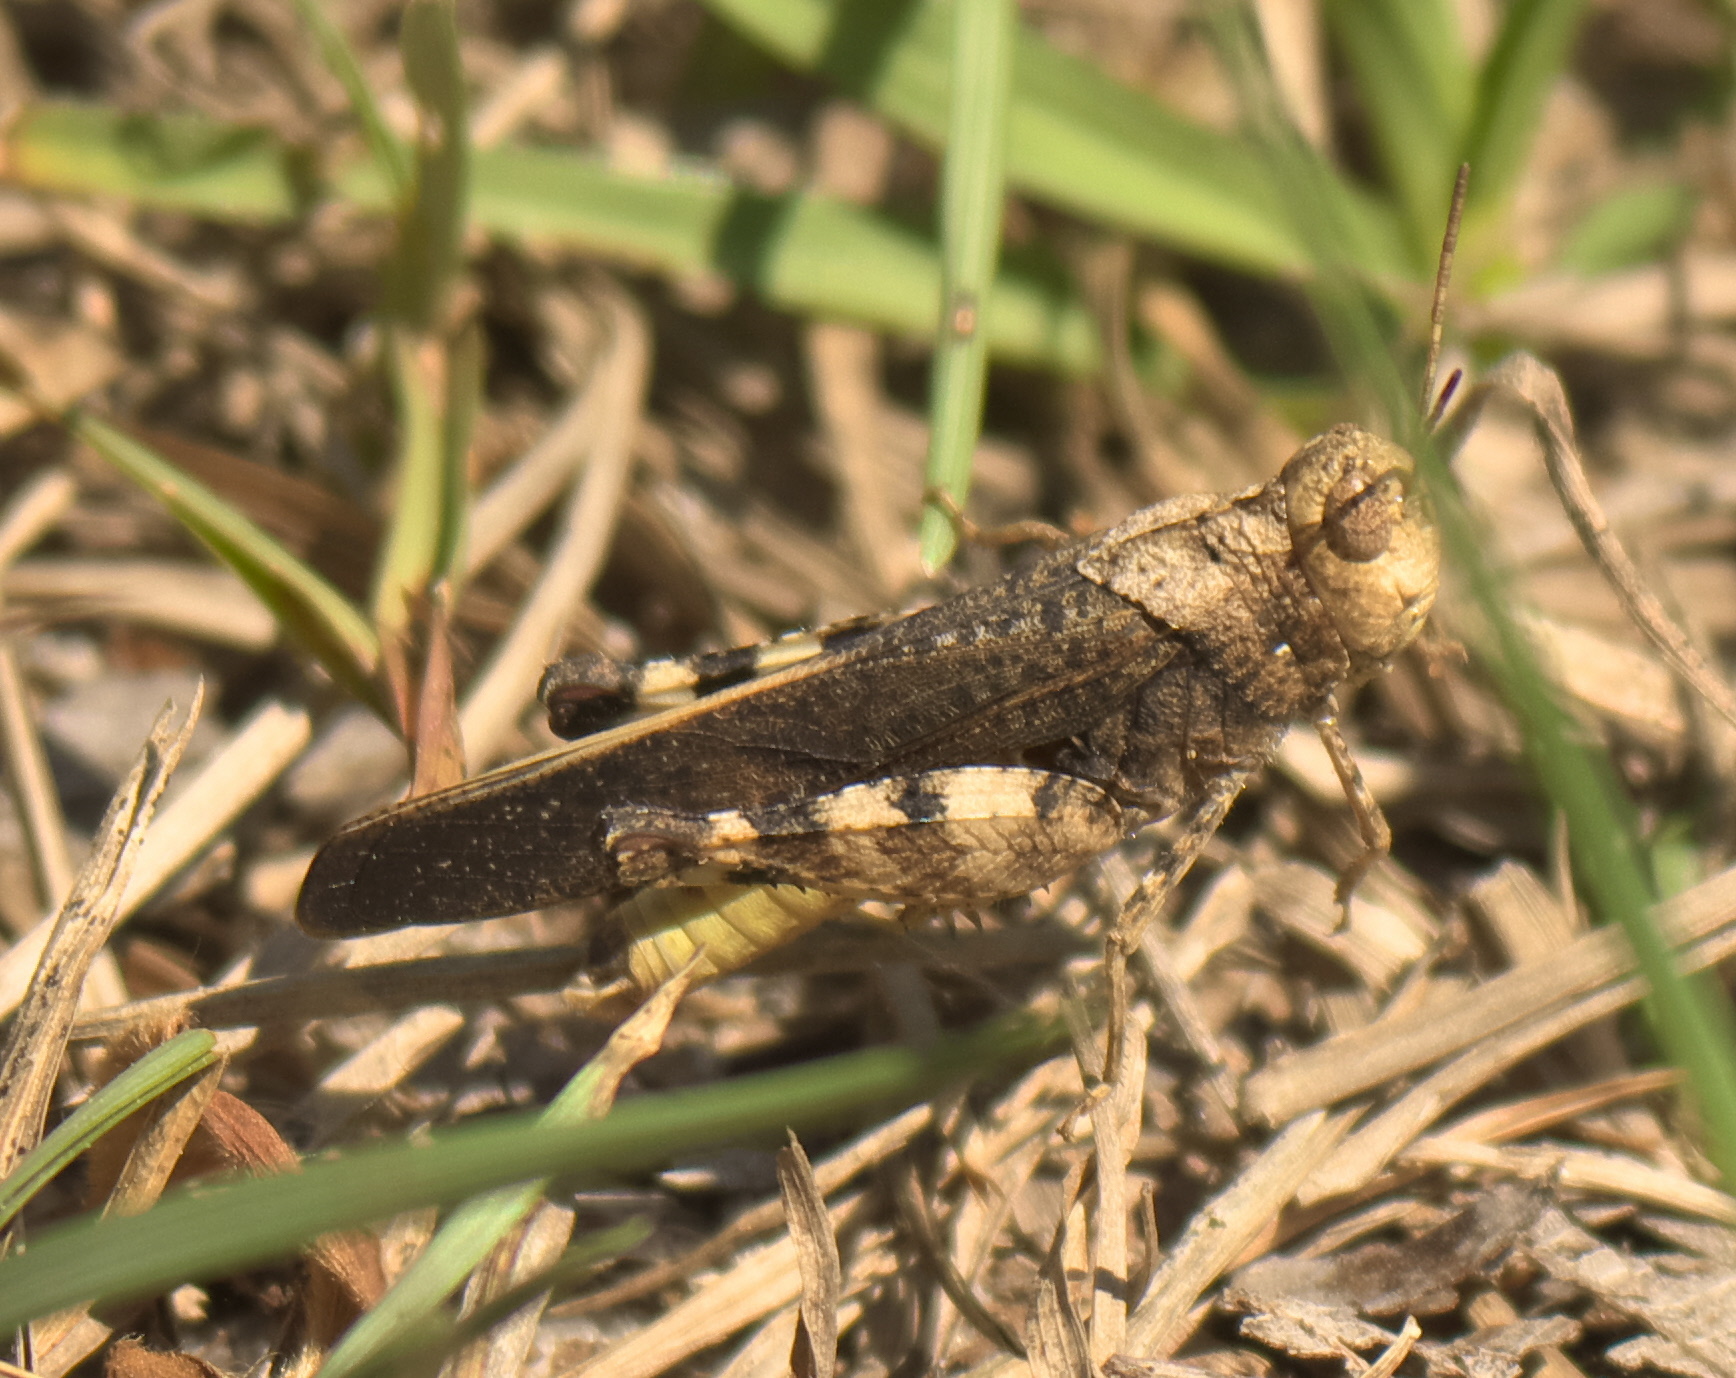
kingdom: Animalia
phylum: Arthropoda
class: Insecta
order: Orthoptera
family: Acrididae
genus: Arphia
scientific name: Arphia granulata
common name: Southern yellow-winged grasshopper
